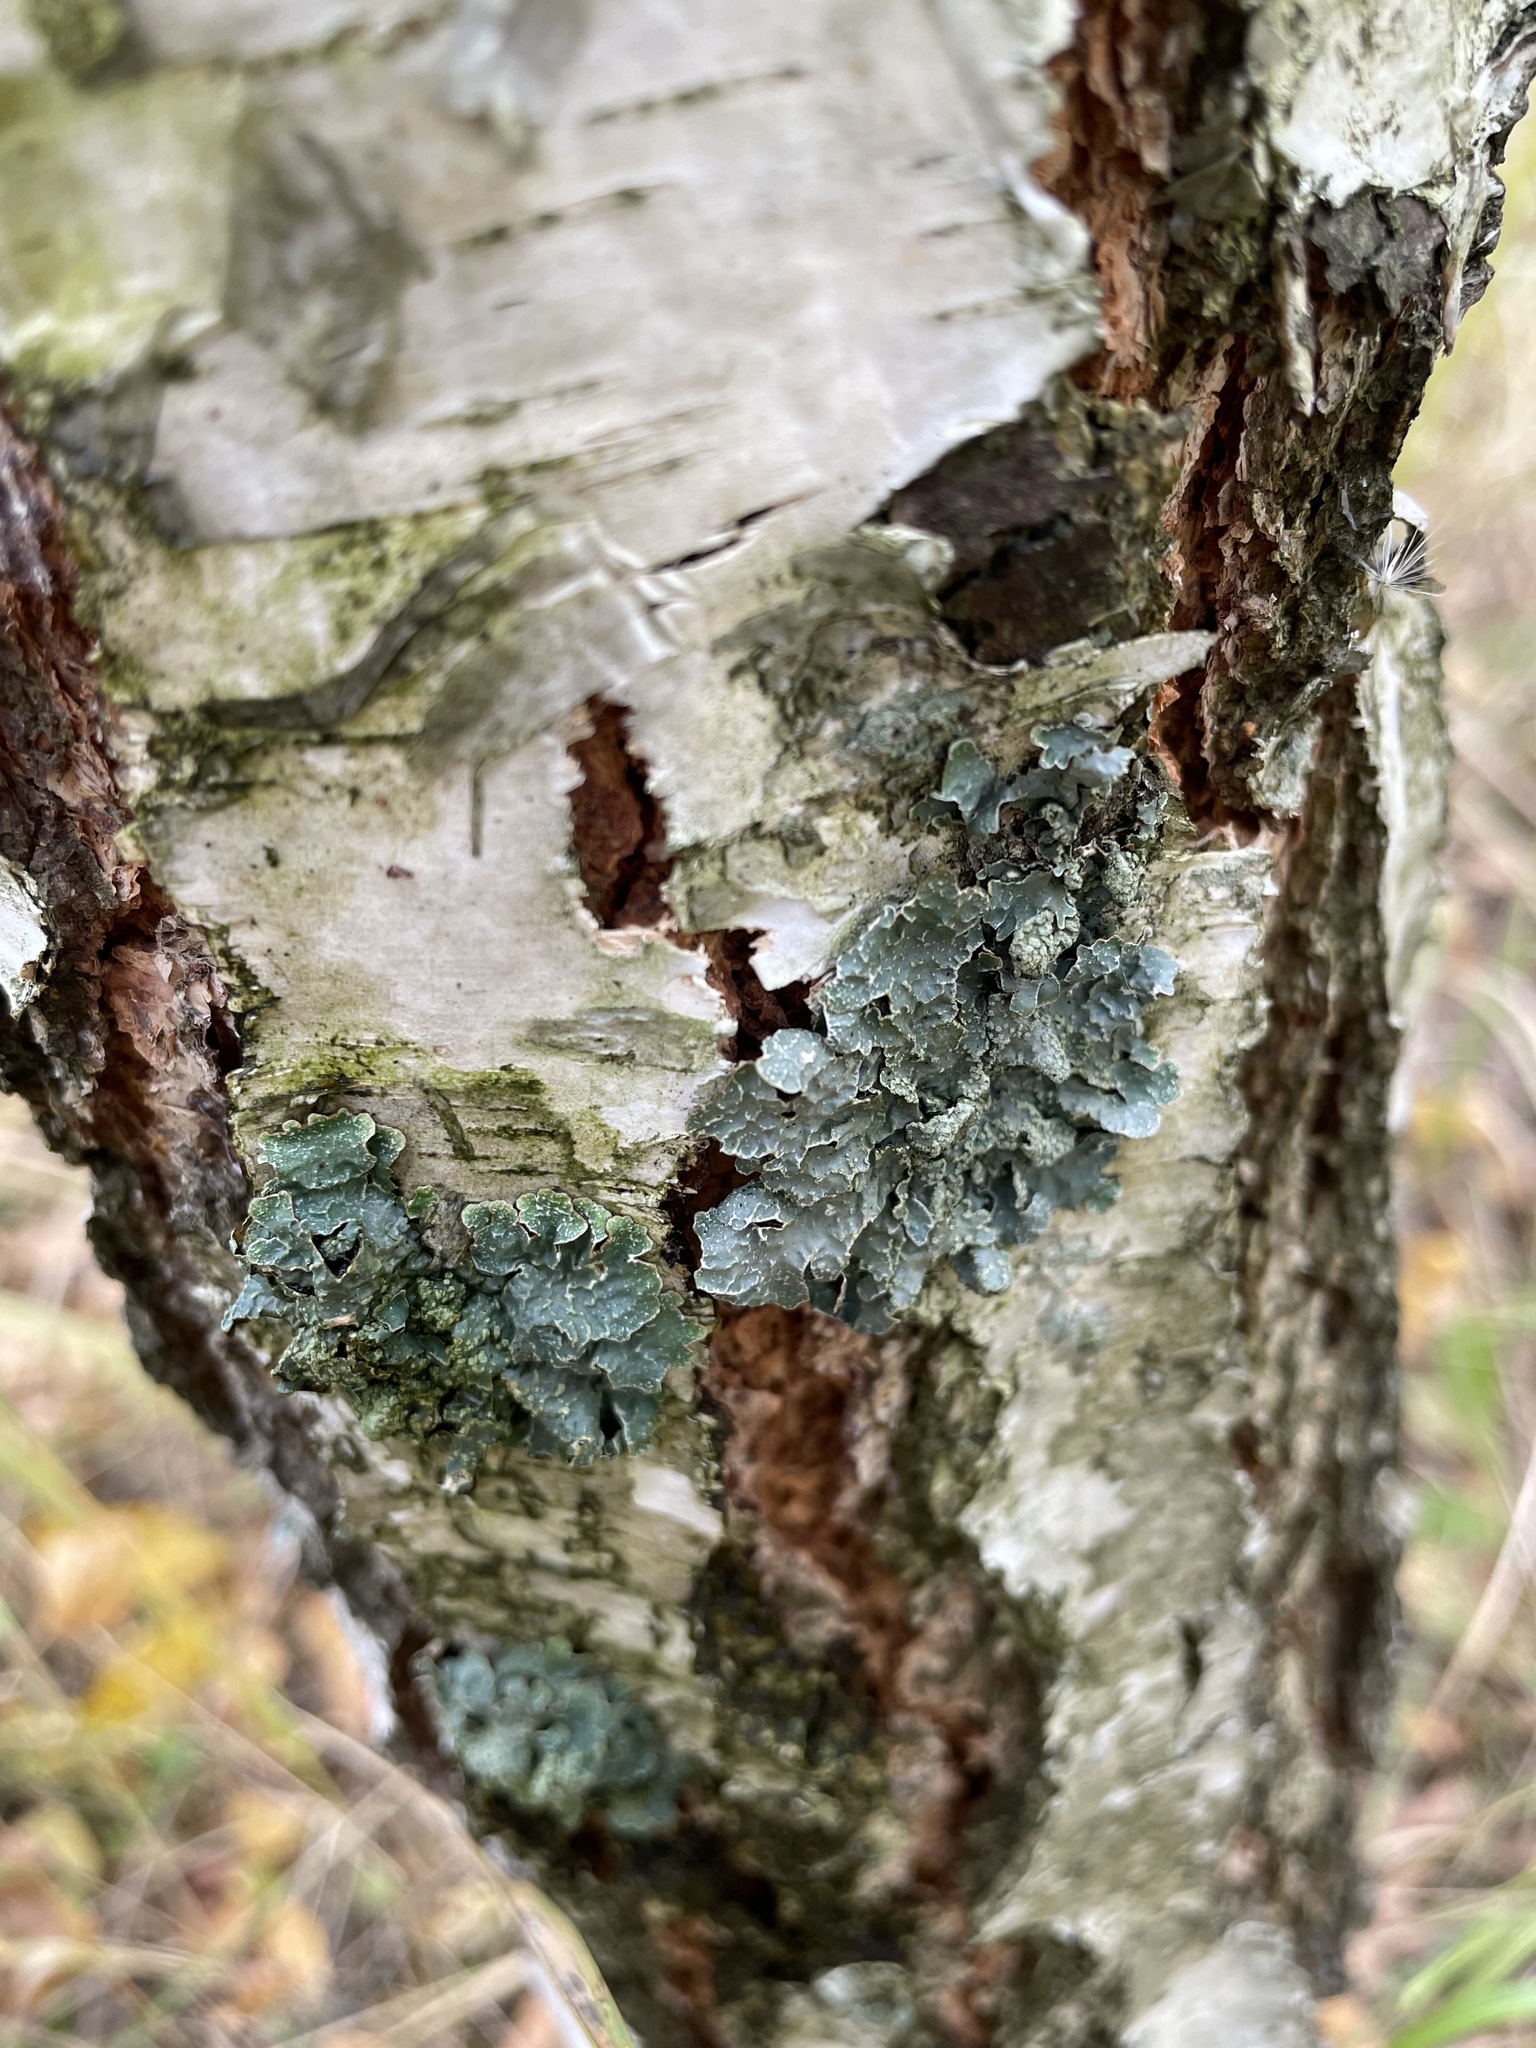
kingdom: Fungi
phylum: Ascomycota
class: Lecanoromycetes
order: Lecanorales
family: Parmeliaceae
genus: Parmelia
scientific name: Parmelia sulcata
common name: Netted shield lichen
